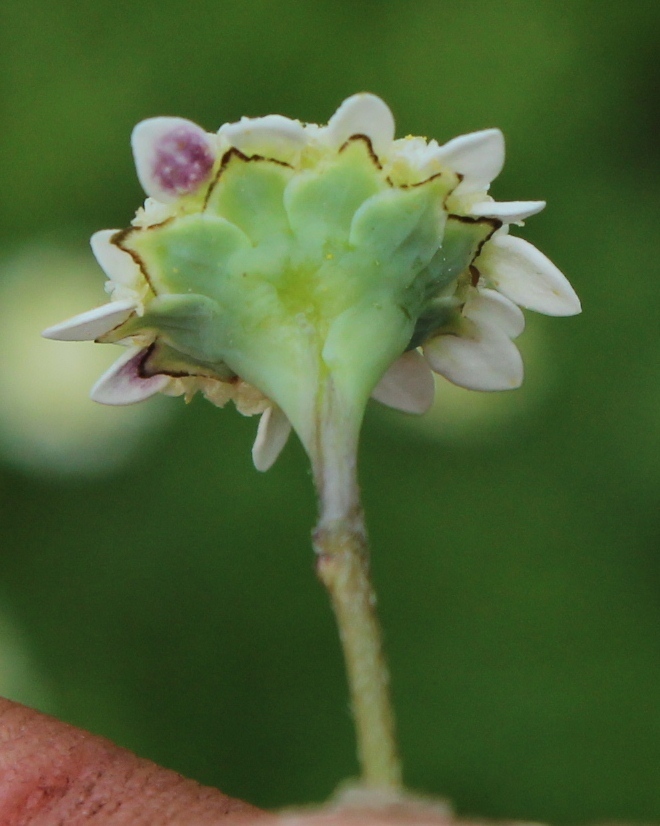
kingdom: Plantae
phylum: Tracheophyta
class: Magnoliopsida
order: Asterales
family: Asteraceae
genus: Cotula
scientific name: Cotula turbinata
